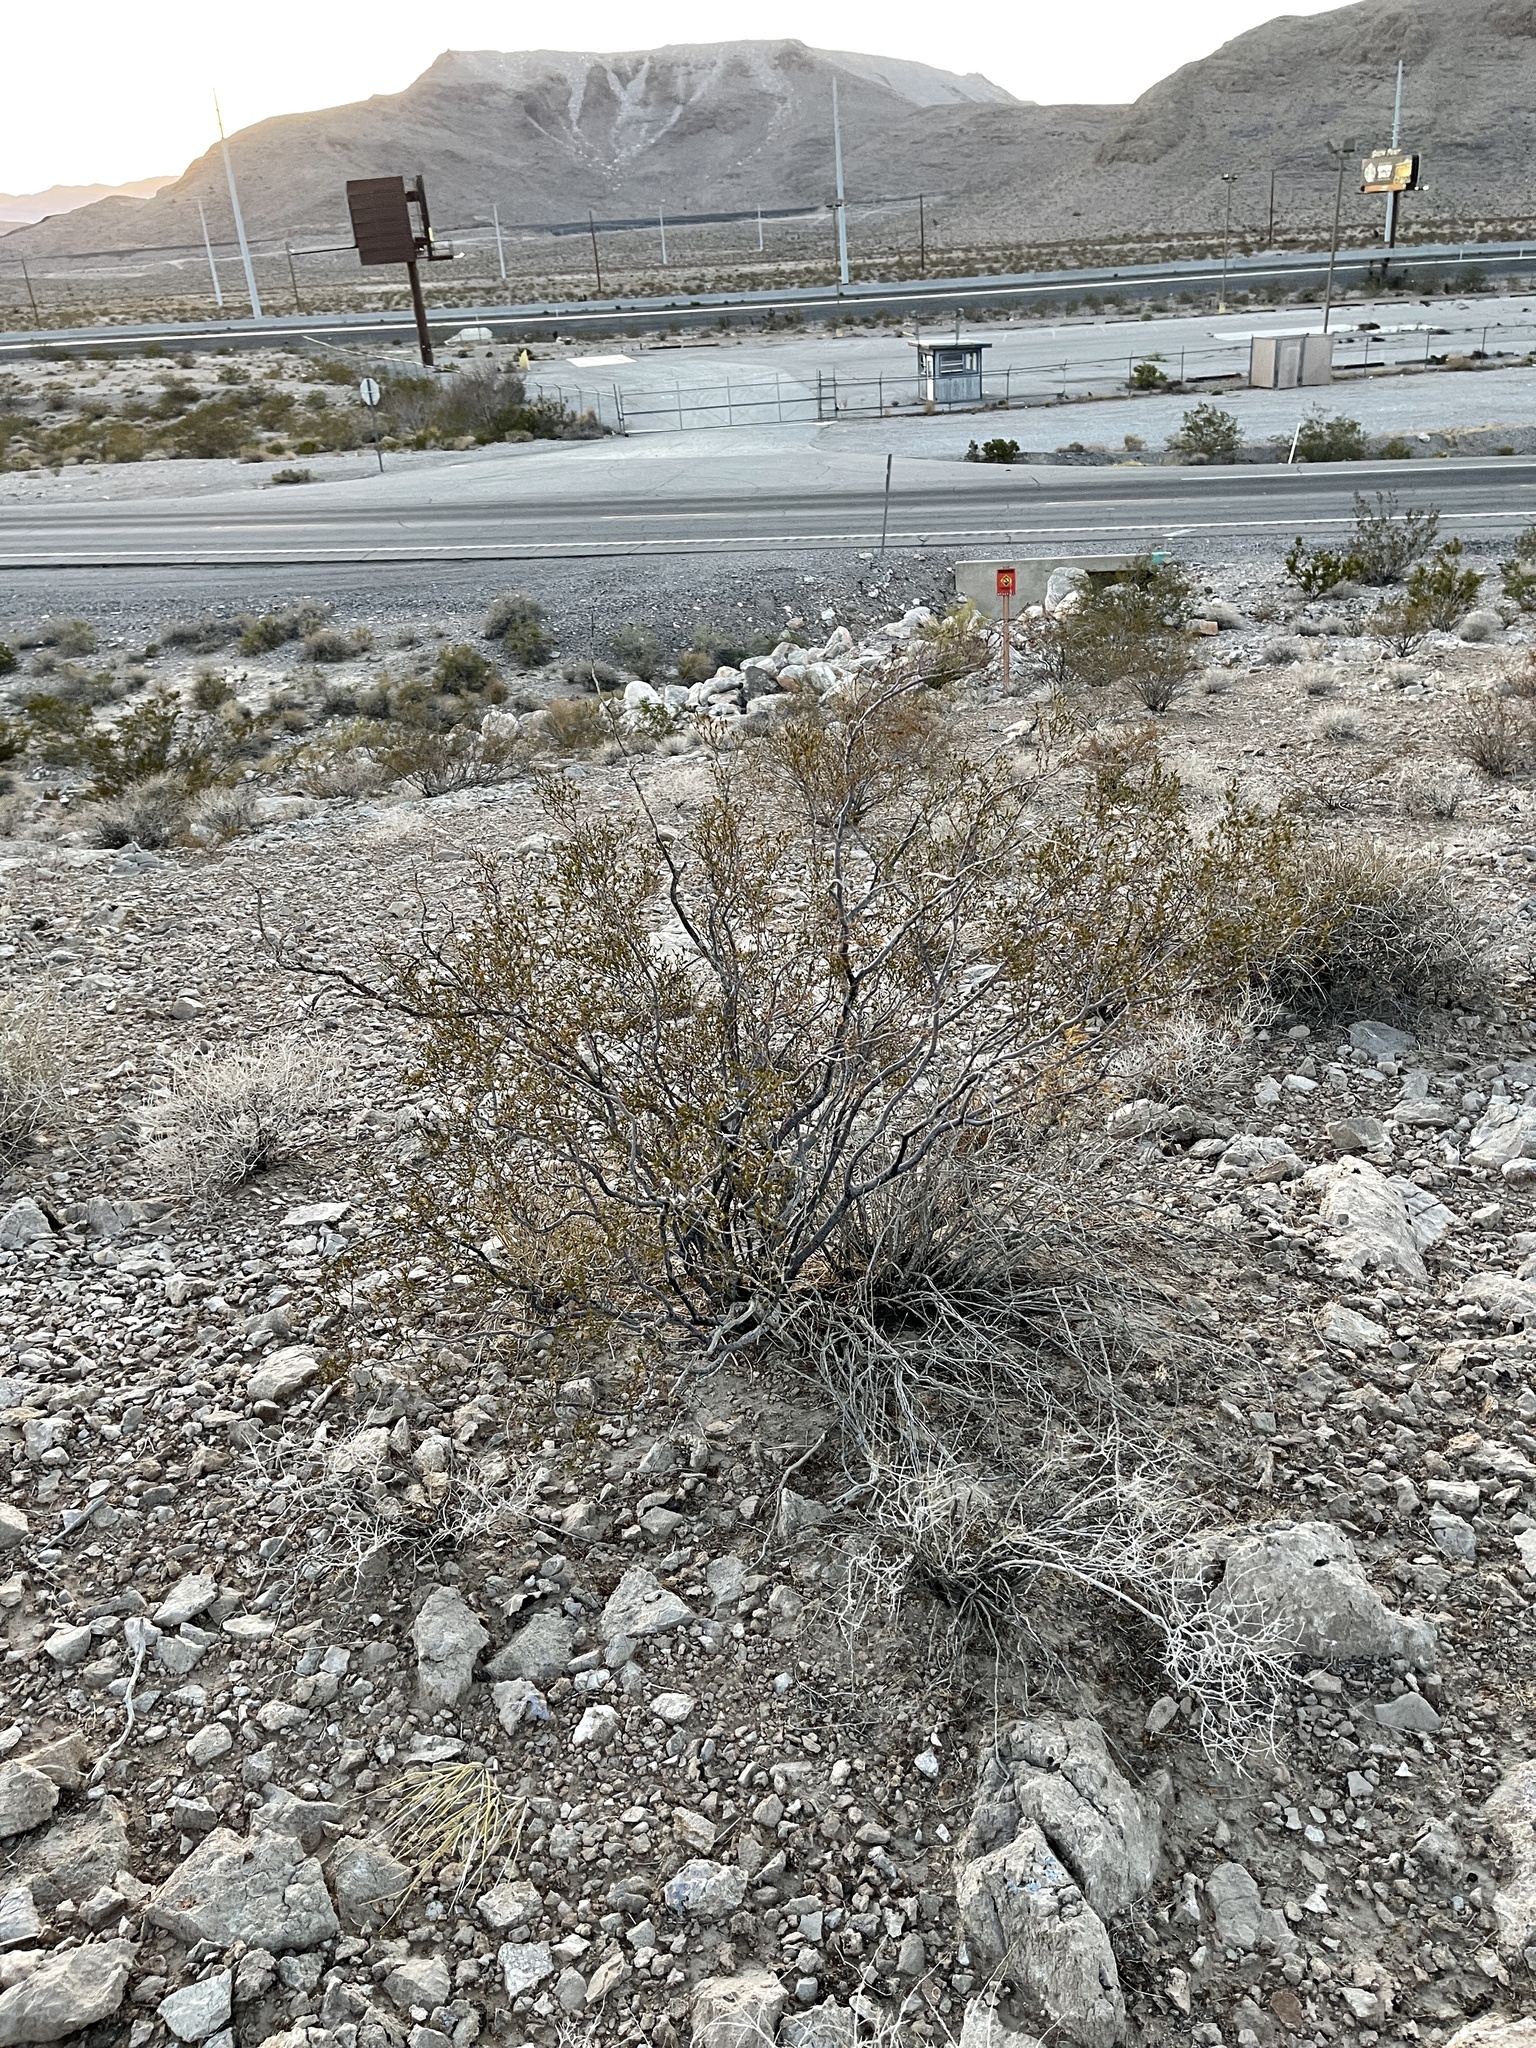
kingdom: Plantae
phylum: Tracheophyta
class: Magnoliopsida
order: Zygophyllales
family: Zygophyllaceae
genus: Larrea
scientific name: Larrea tridentata
